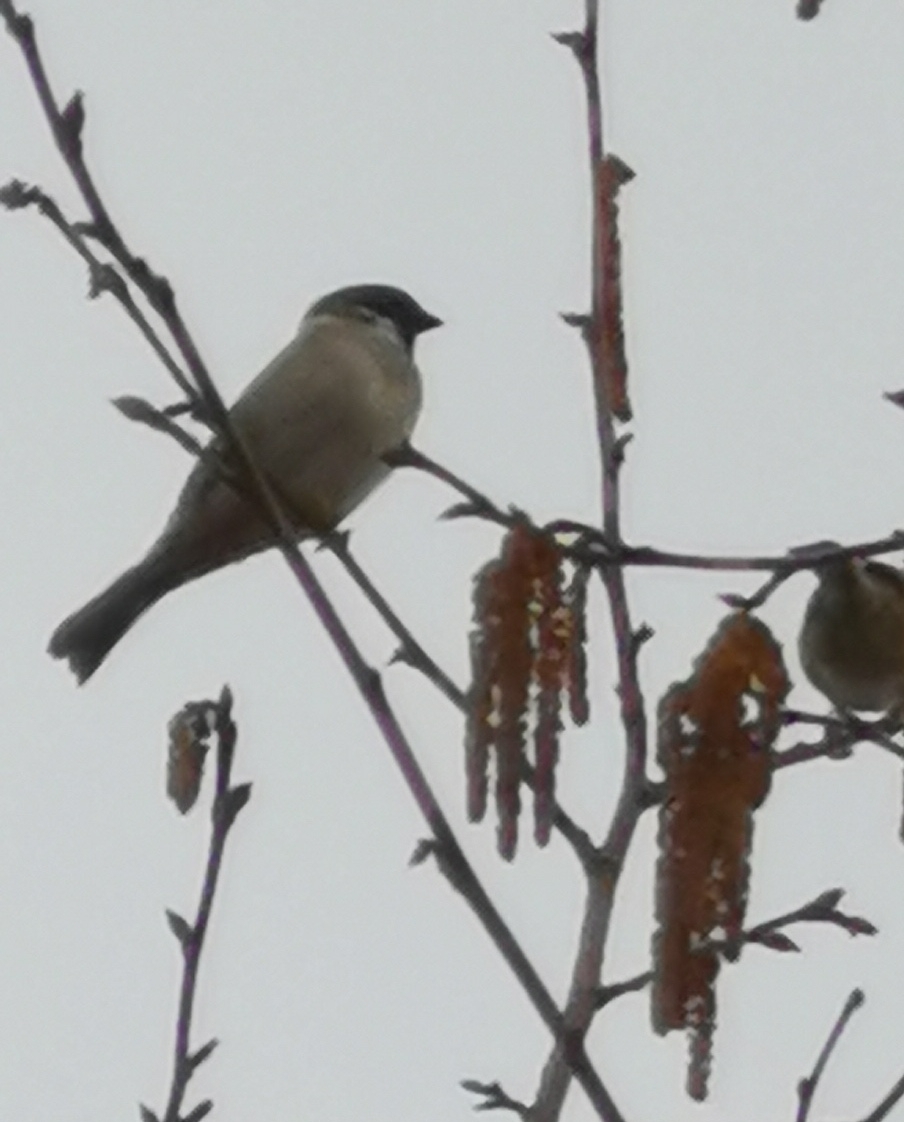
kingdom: Animalia
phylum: Chordata
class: Aves
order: Passeriformes
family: Passeridae
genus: Passer
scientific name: Passer montanus
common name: Eurasian tree sparrow
